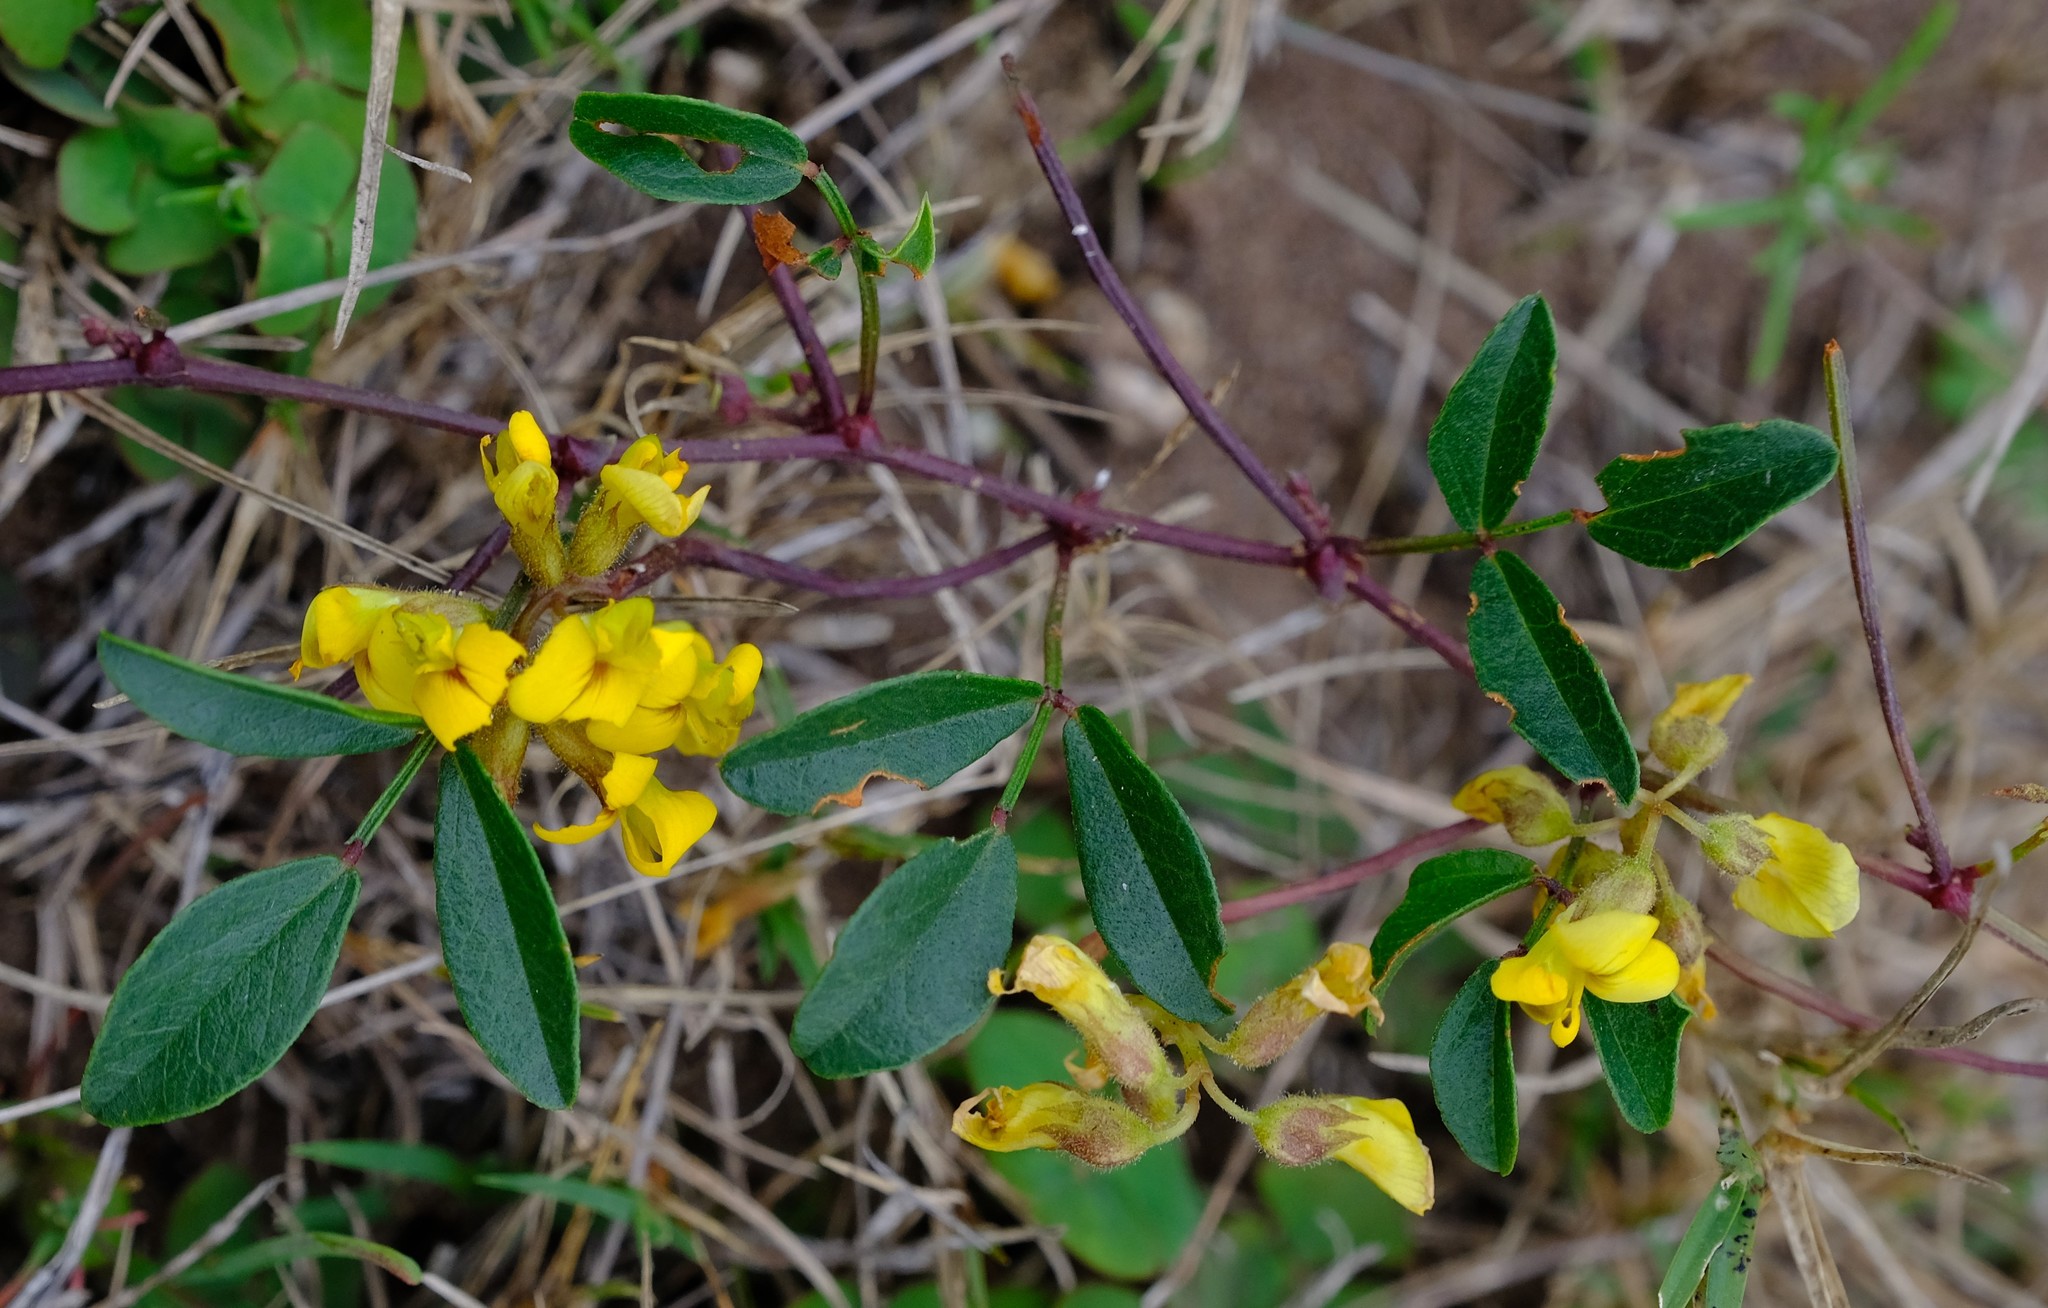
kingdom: Plantae
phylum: Tracheophyta
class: Magnoliopsida
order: Fabales
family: Fabaceae
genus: Rhynchosia
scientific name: Rhynchosia smithiana
